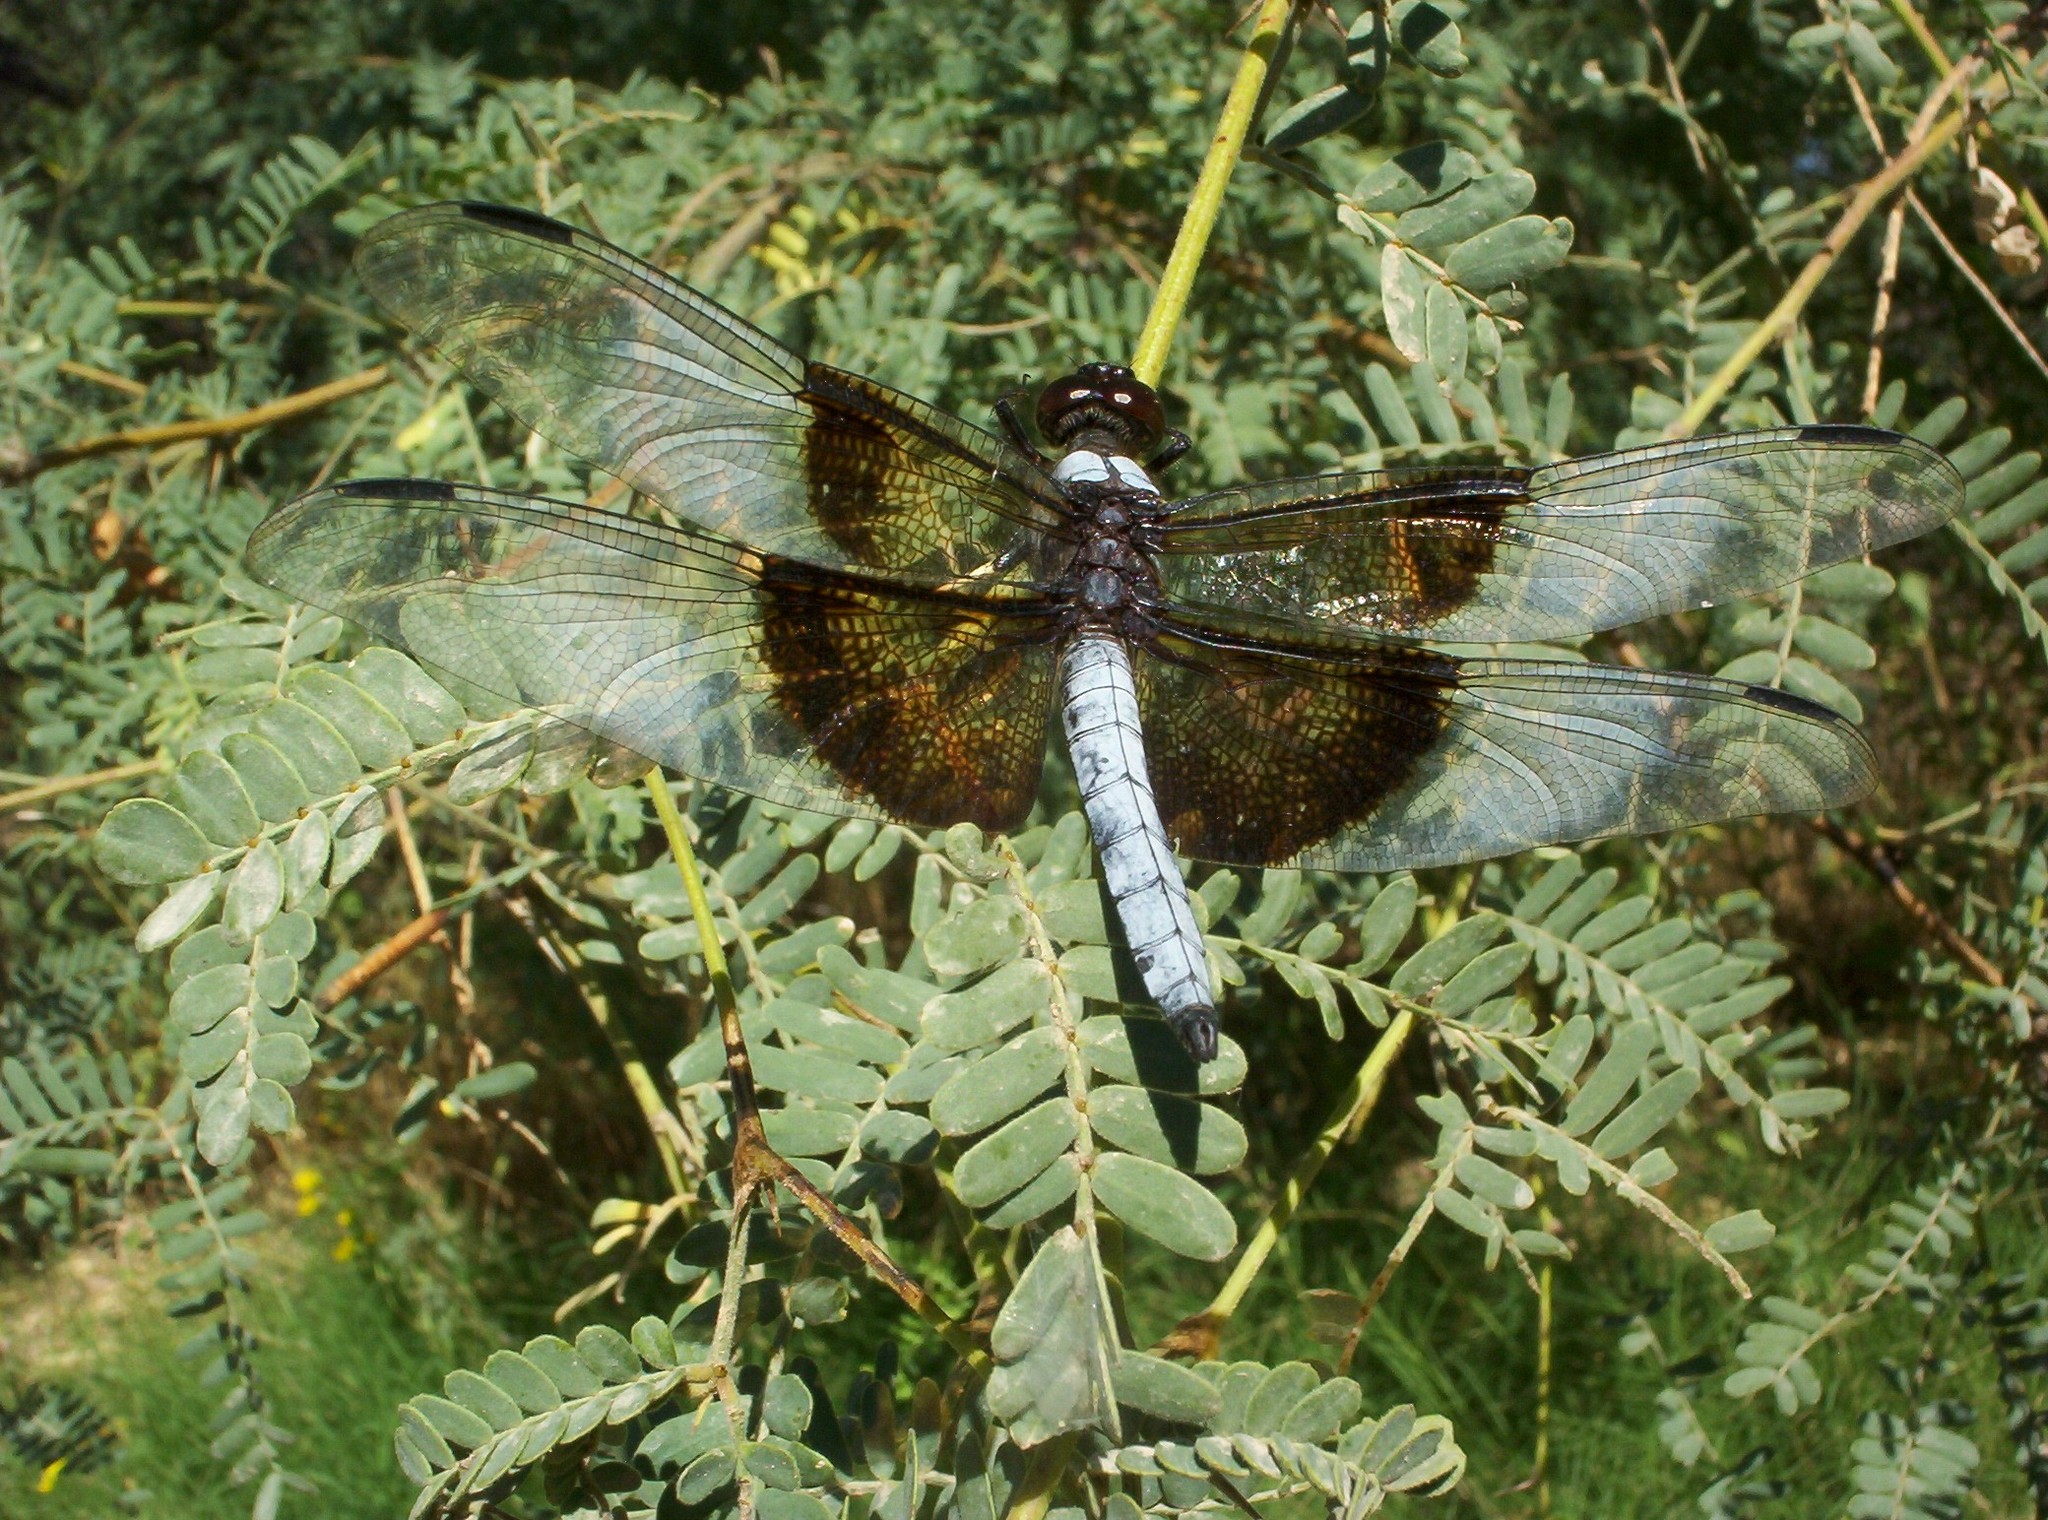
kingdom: Animalia
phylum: Arthropoda
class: Insecta
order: Odonata
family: Libellulidae
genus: Libellula
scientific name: Libellula luctuosa
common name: Widow skimmer
